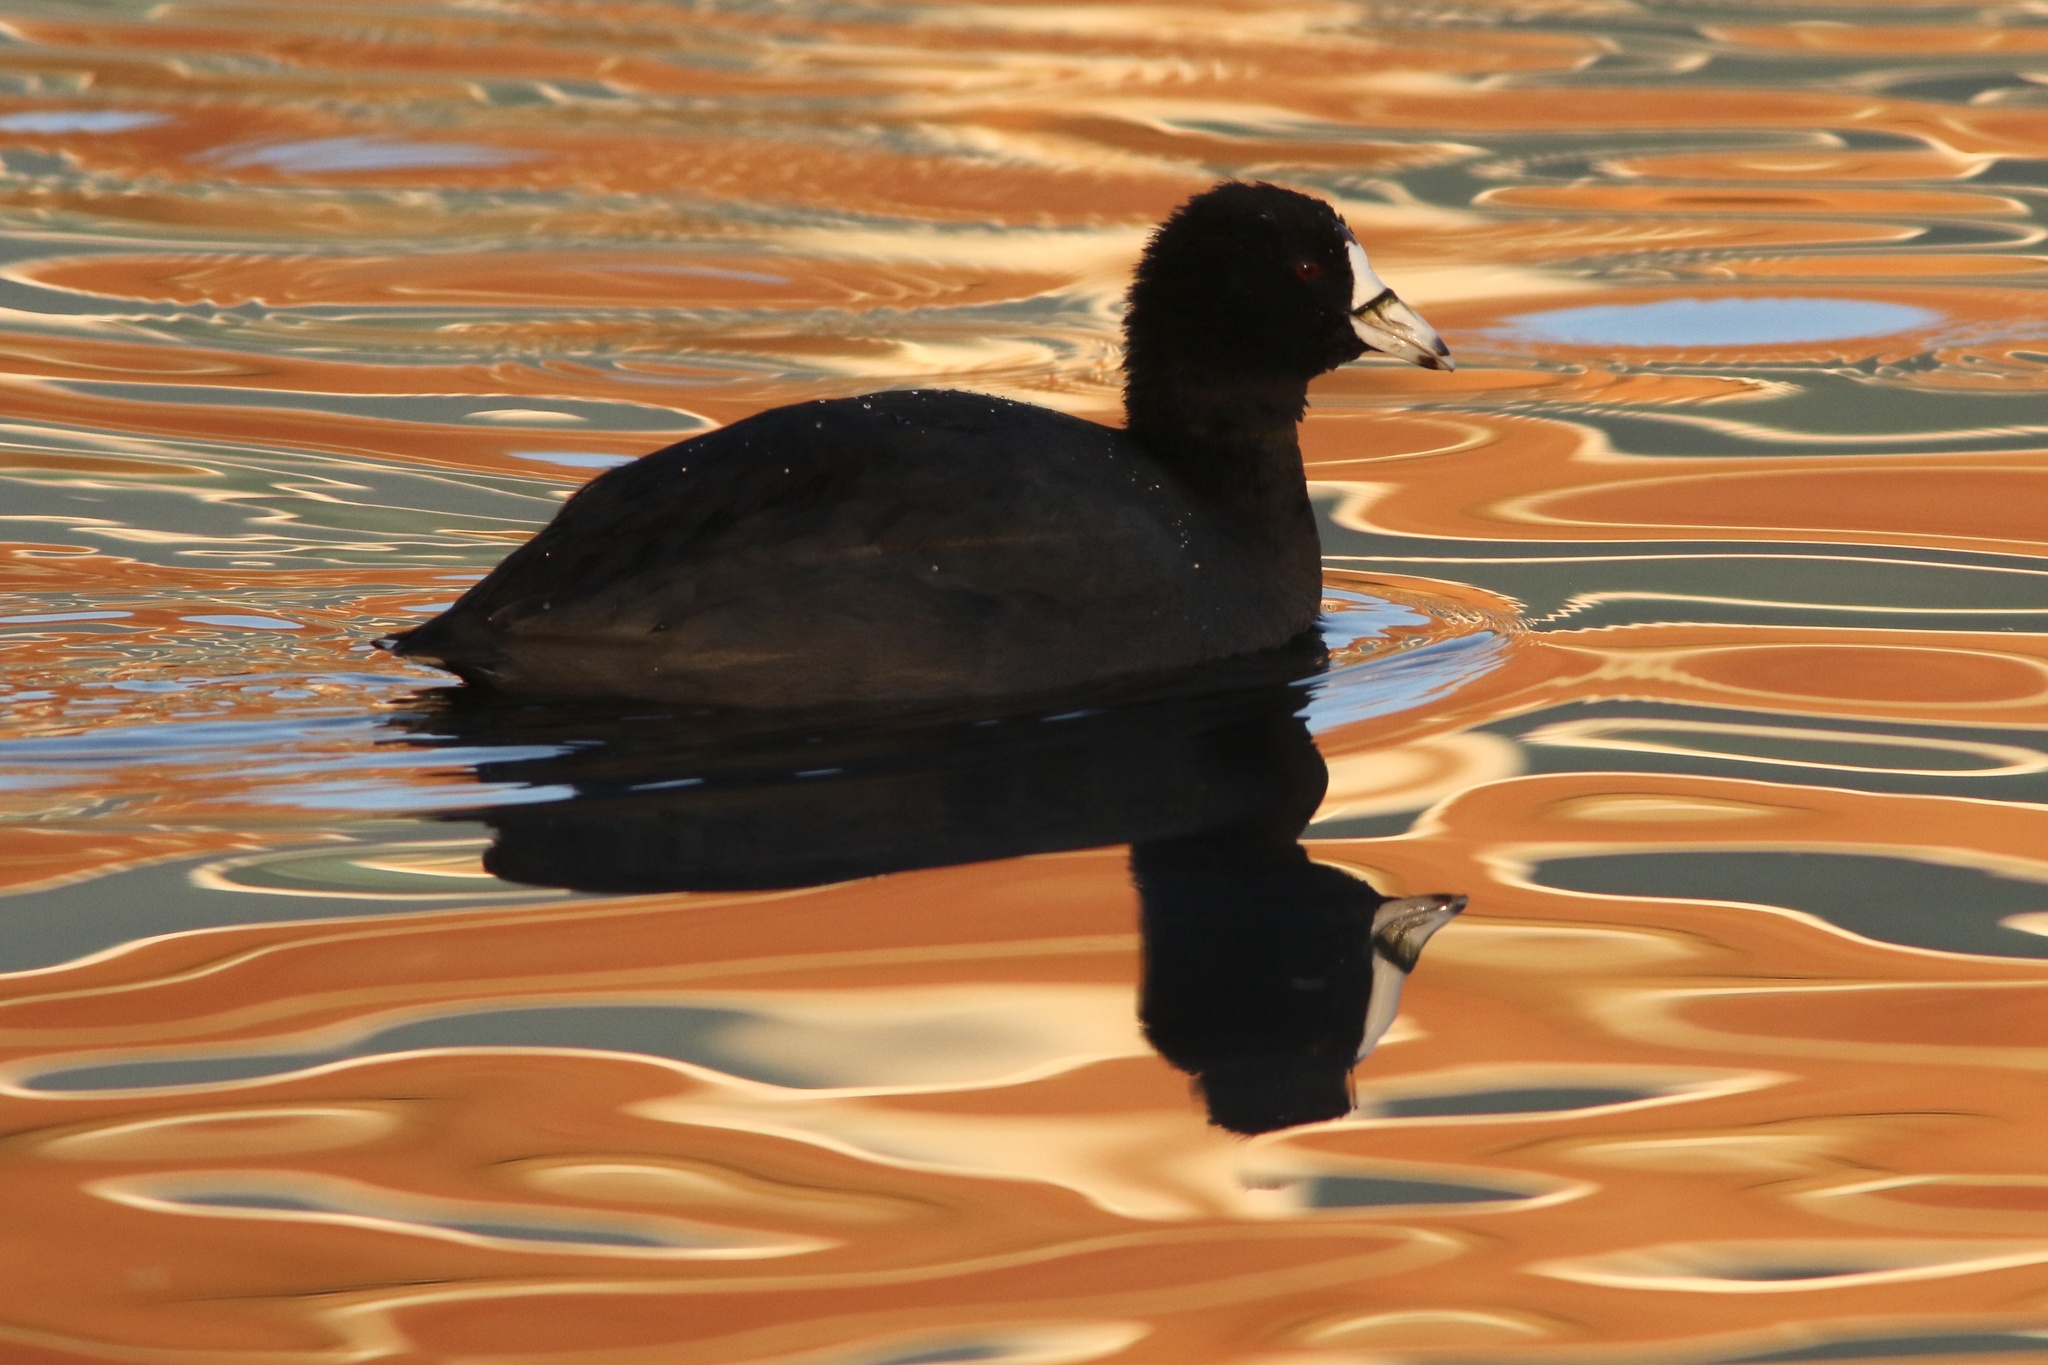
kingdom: Animalia
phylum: Chordata
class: Aves
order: Gruiformes
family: Rallidae
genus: Fulica
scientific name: Fulica americana
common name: American coot
